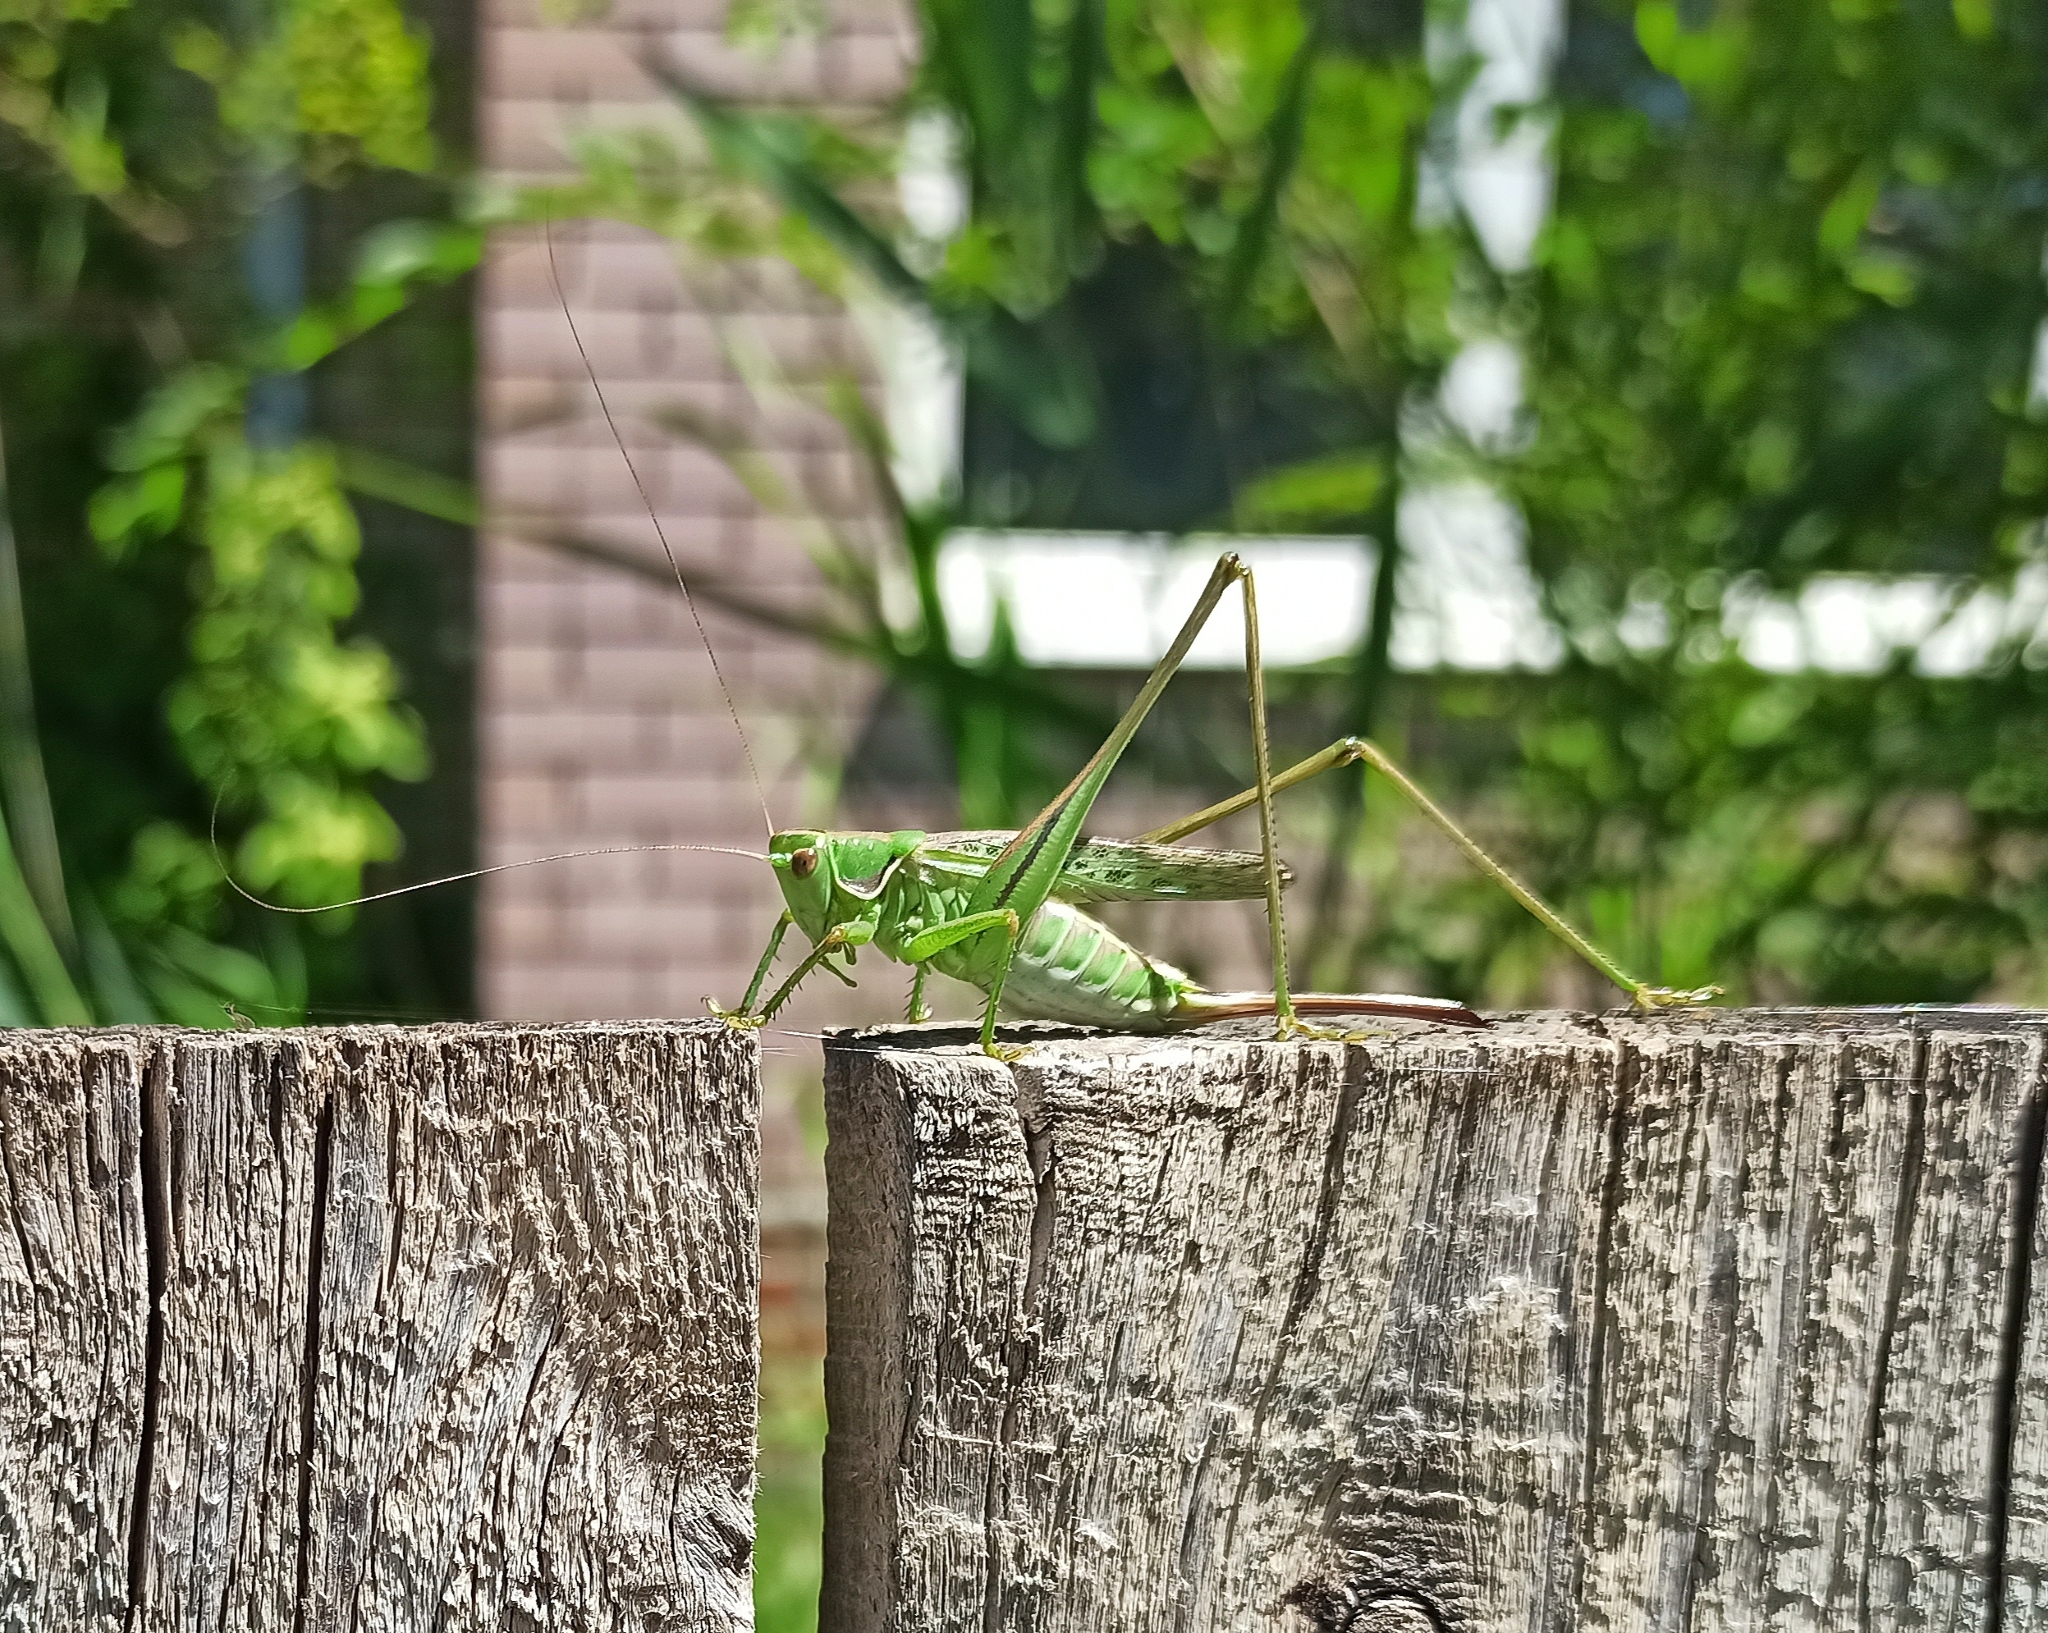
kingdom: Animalia
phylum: Arthropoda
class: Insecta
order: Orthoptera
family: Tettigoniidae
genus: Gampsocleis
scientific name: Gampsocleis glabra
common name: Heath bushcricket
